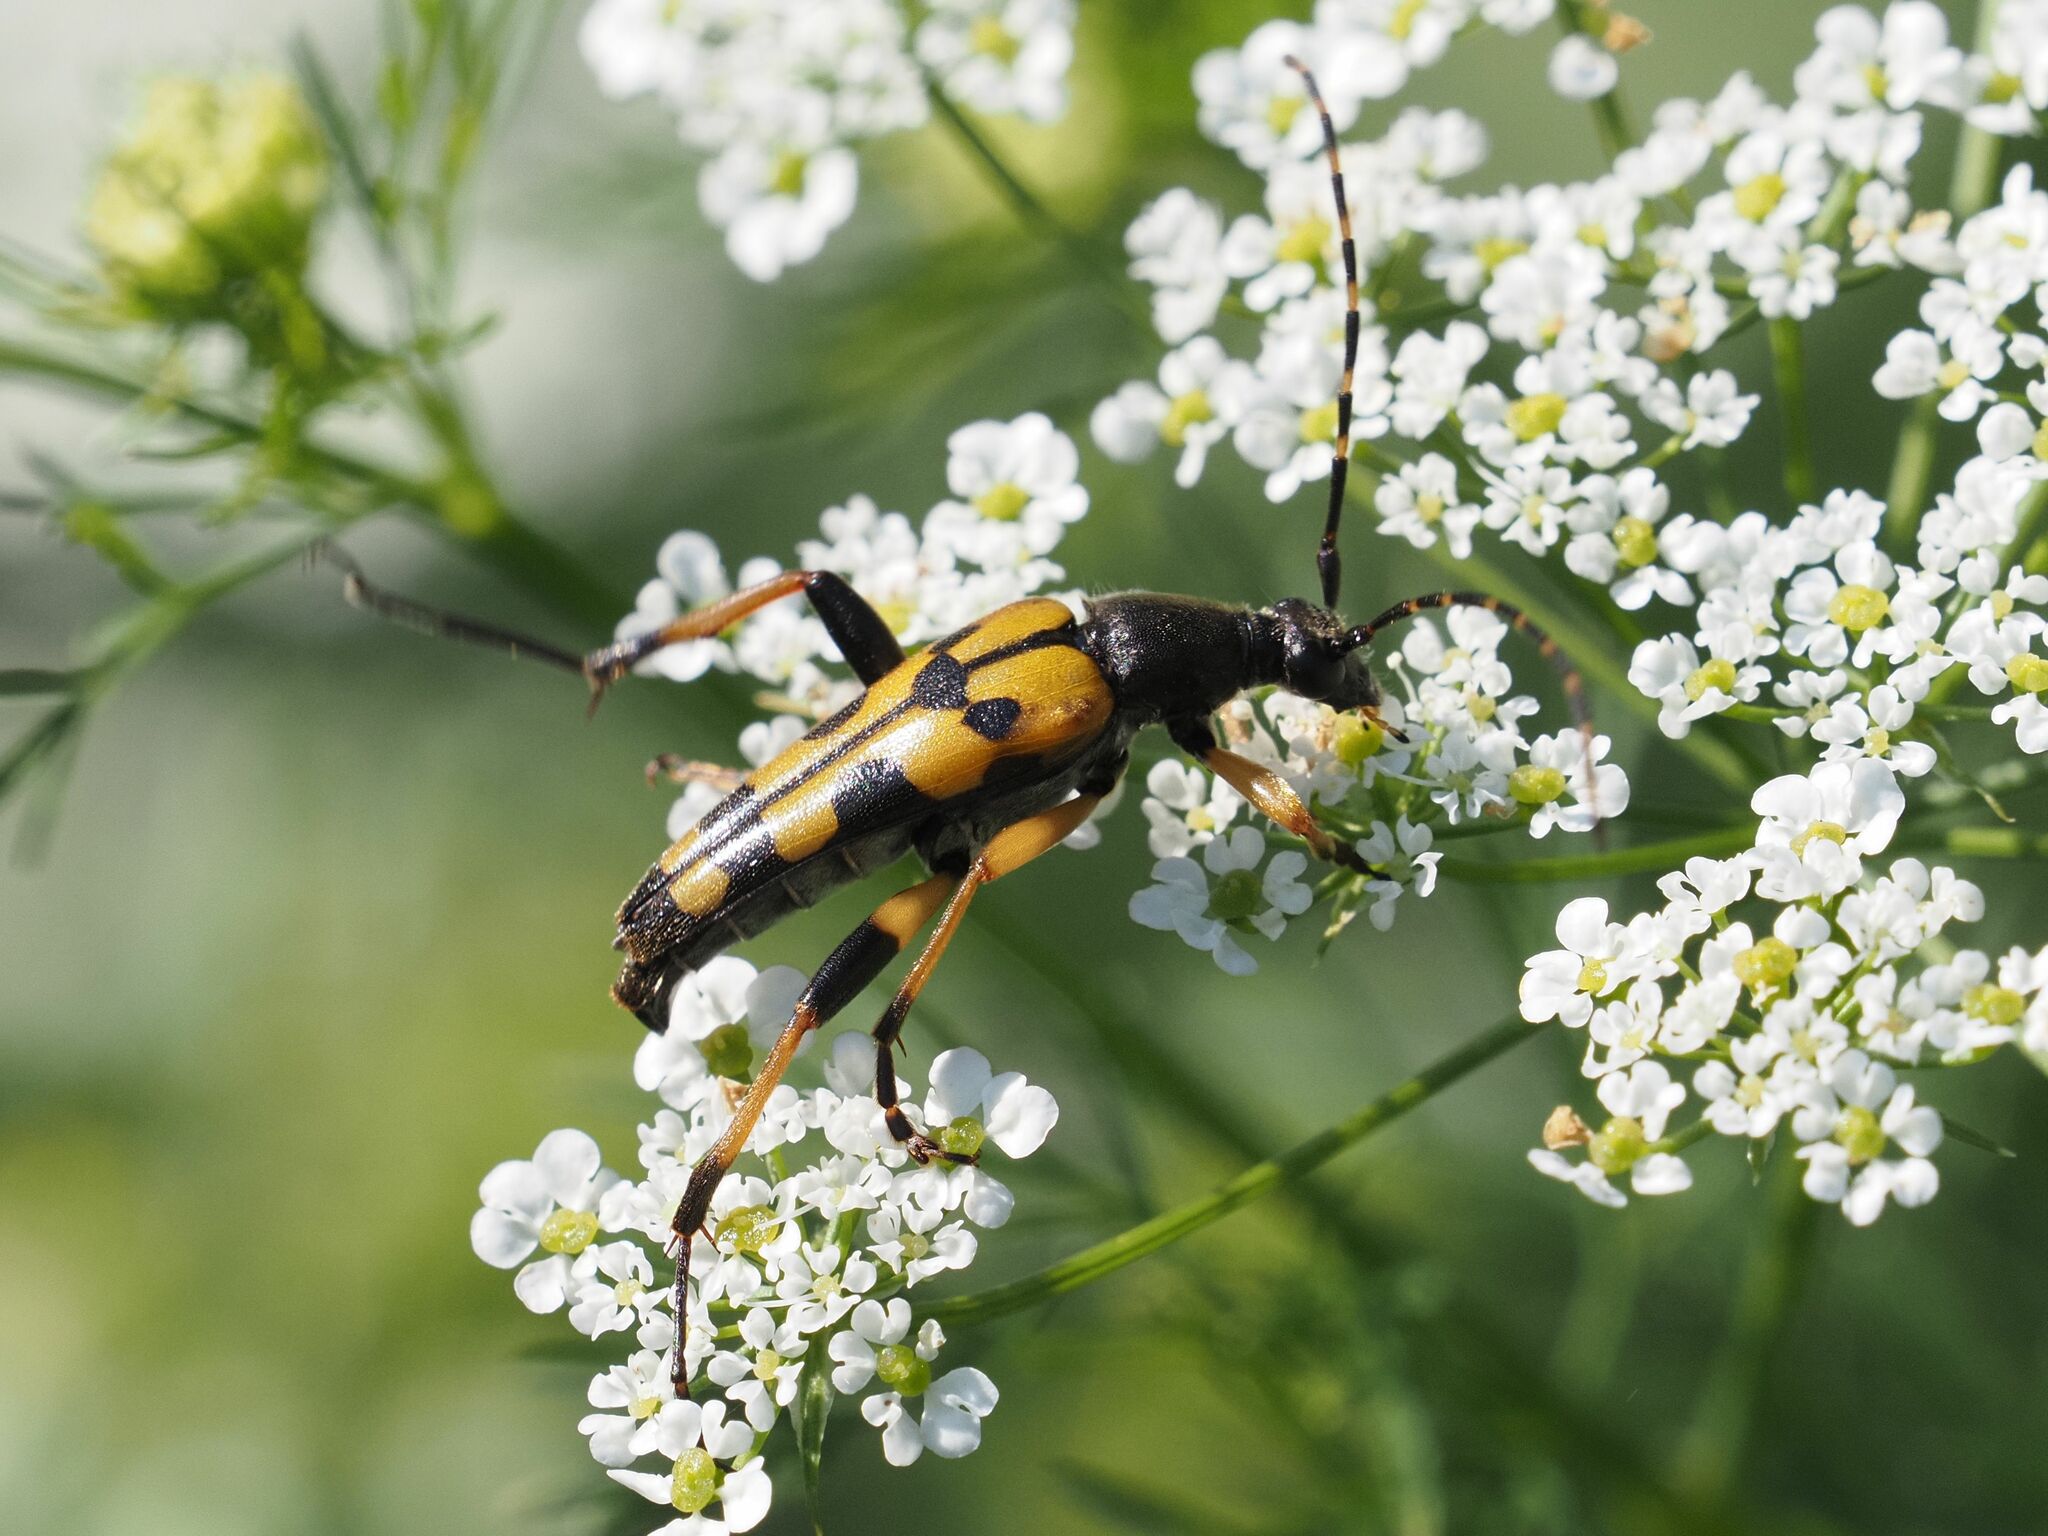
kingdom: Animalia
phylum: Arthropoda
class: Insecta
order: Coleoptera
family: Cerambycidae
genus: Rutpela
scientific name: Rutpela maculata
